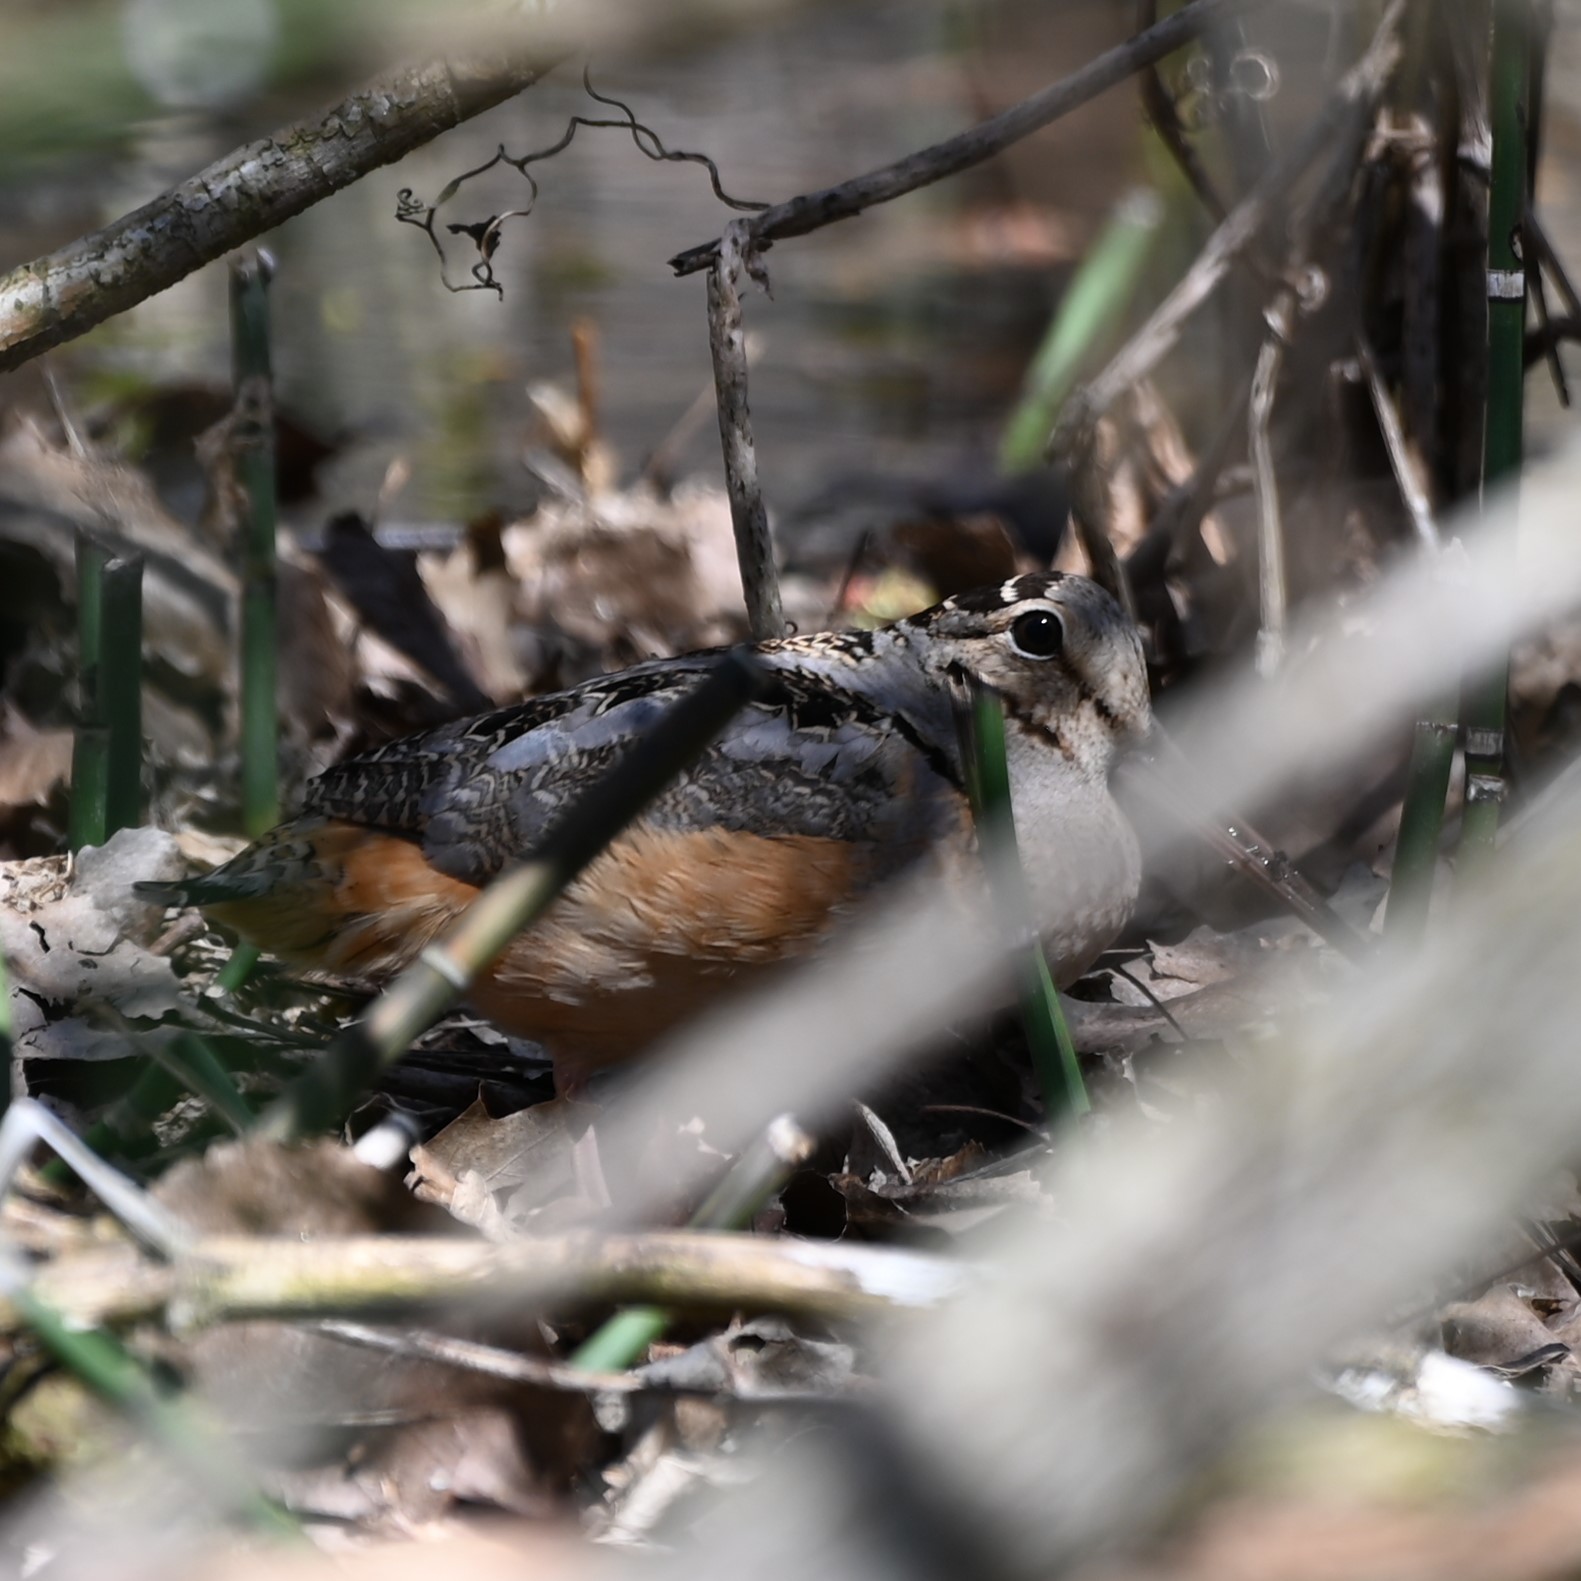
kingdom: Animalia
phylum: Chordata
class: Aves
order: Charadriiformes
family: Scolopacidae
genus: Scolopax
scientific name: Scolopax minor
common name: American woodcock
